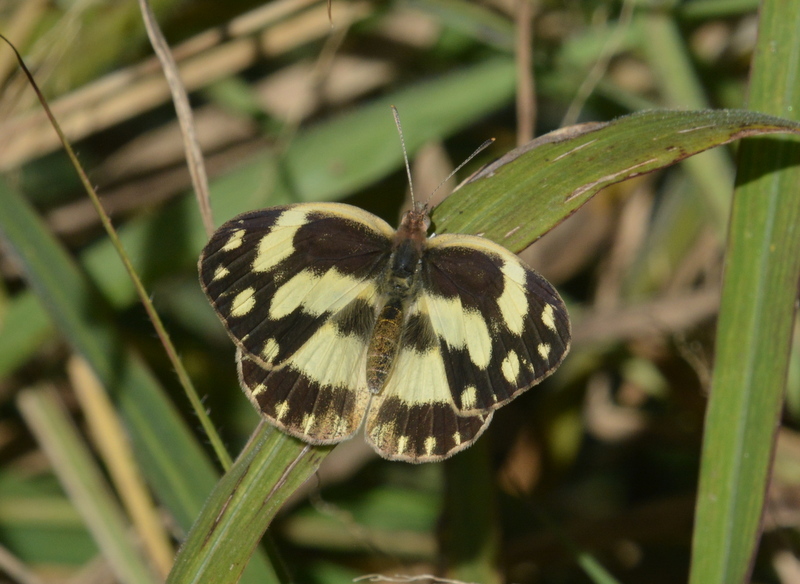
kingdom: Animalia
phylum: Arthropoda
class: Insecta
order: Lepidoptera
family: Pieridae
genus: Pinacopteryx
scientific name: Pinacopteryx eriphia
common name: Zebra white
